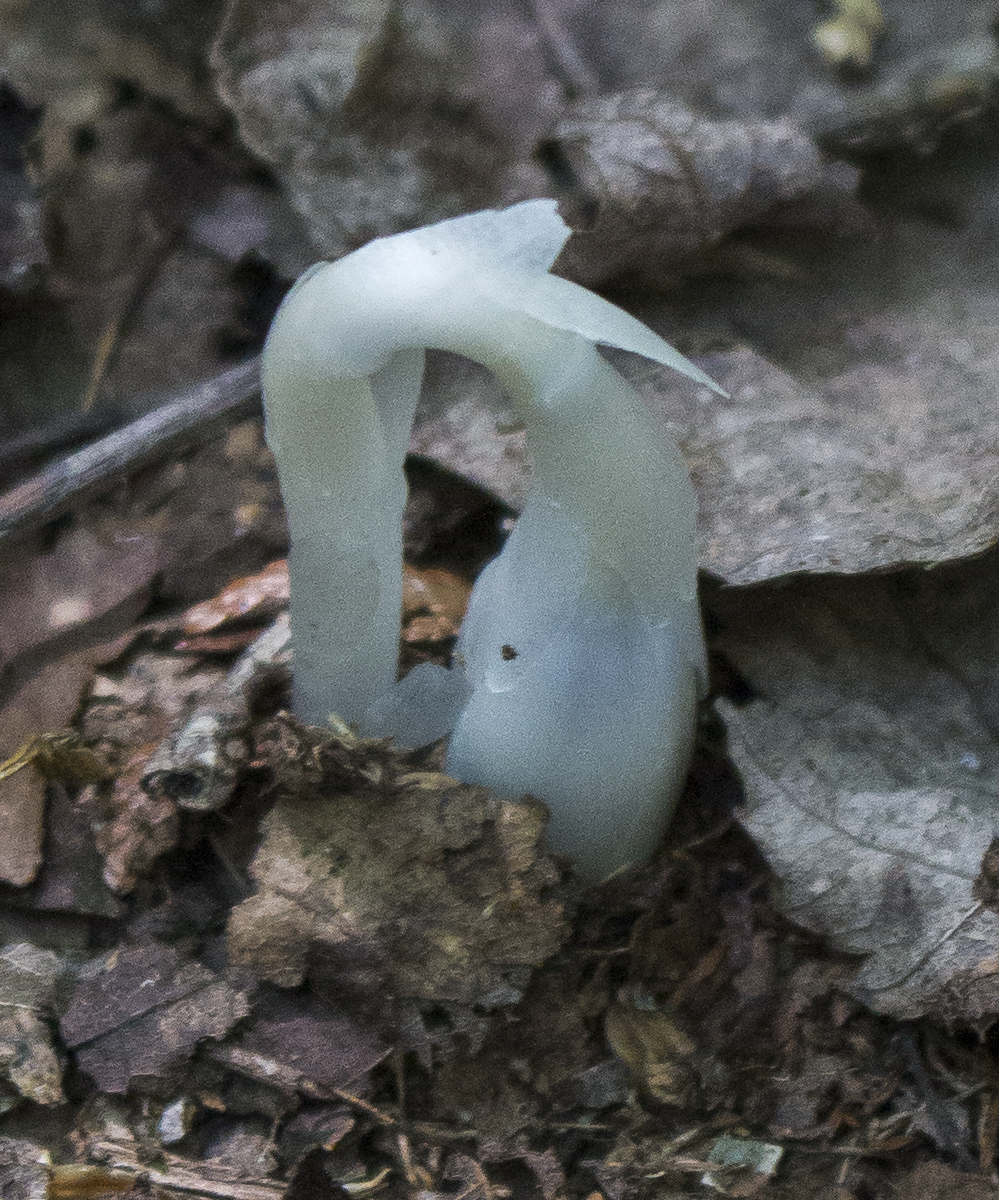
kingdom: Plantae
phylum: Tracheophyta
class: Magnoliopsida
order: Ericales
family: Ericaceae
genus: Monotropa
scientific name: Monotropa uniflora
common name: Convulsion root
